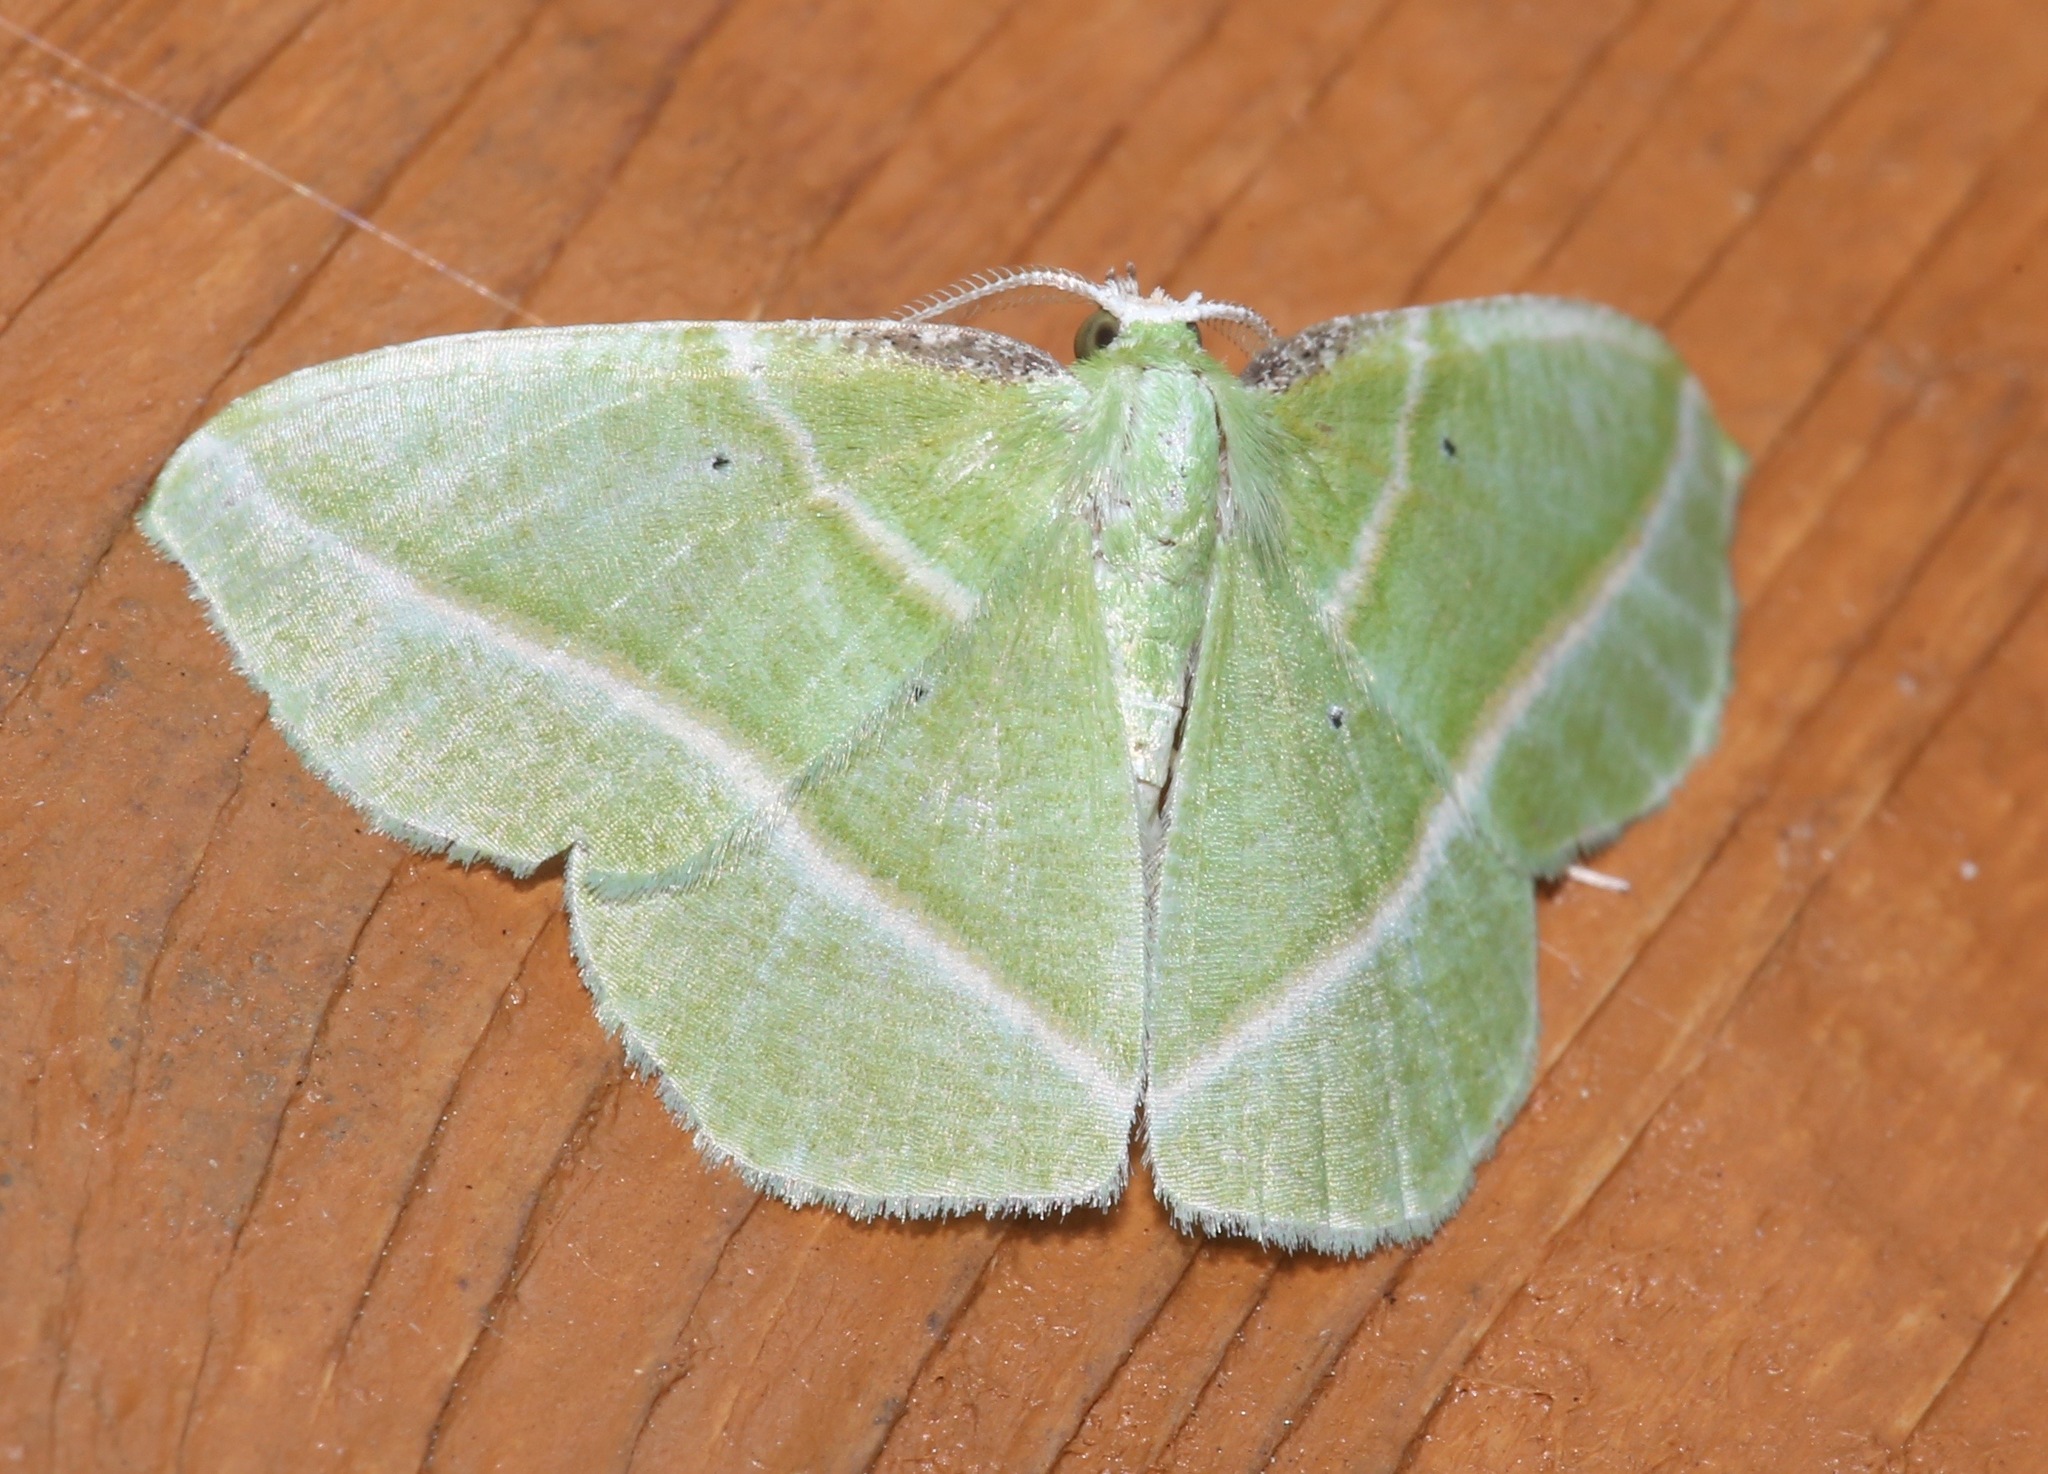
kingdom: Animalia
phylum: Arthropoda
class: Insecta
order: Lepidoptera
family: Geometridae
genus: Dichorda
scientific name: Dichorda iridaria
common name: Showy emerald
